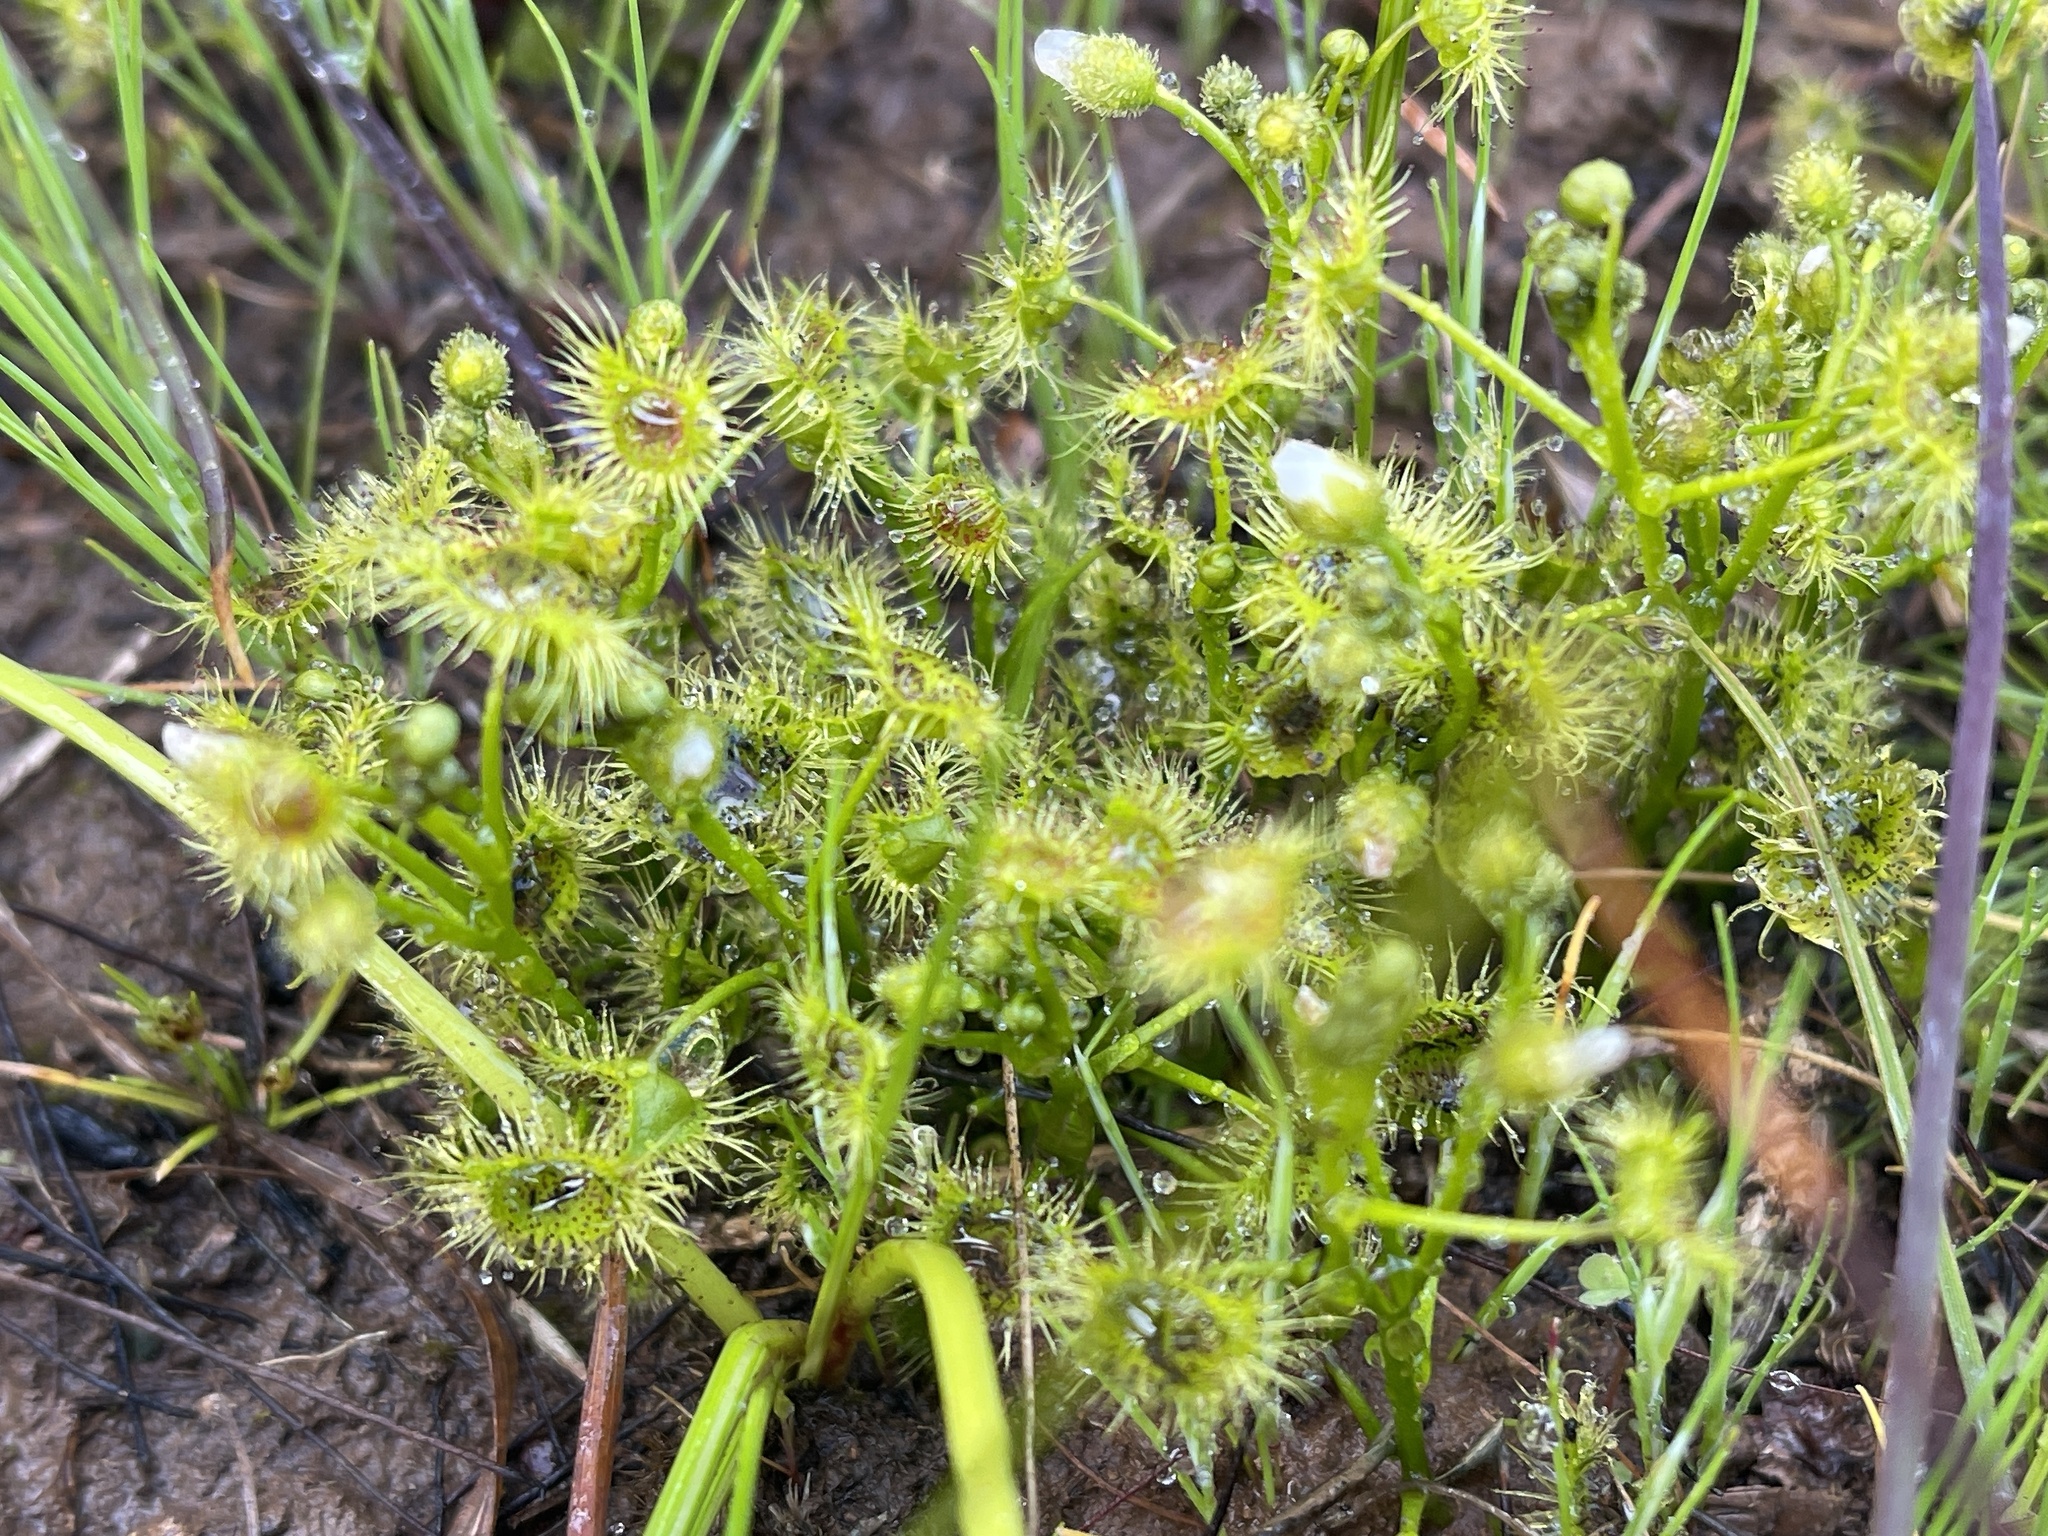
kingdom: Plantae
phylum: Tracheophyta
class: Magnoliopsida
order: Caryophyllales
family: Droseraceae
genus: Drosera
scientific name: Drosera hookeri
